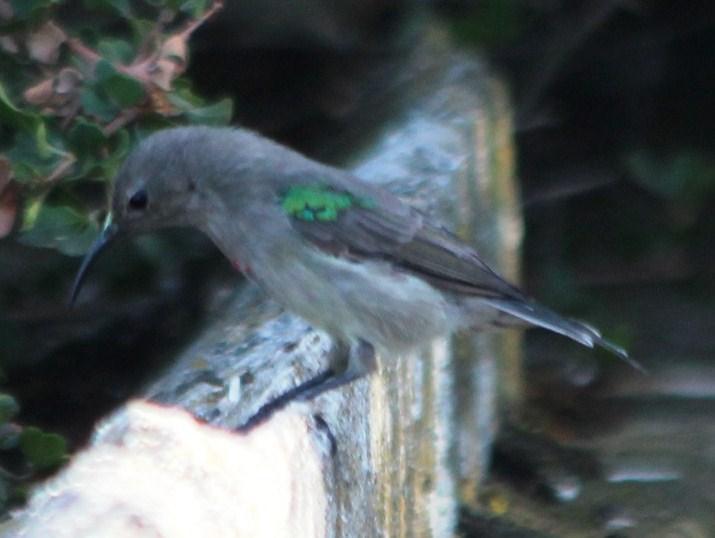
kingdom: Animalia
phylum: Chordata
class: Aves
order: Passeriformes
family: Nectariniidae
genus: Cinnyris
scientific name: Cinnyris chalybeus
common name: Southern double-collared sunbird
